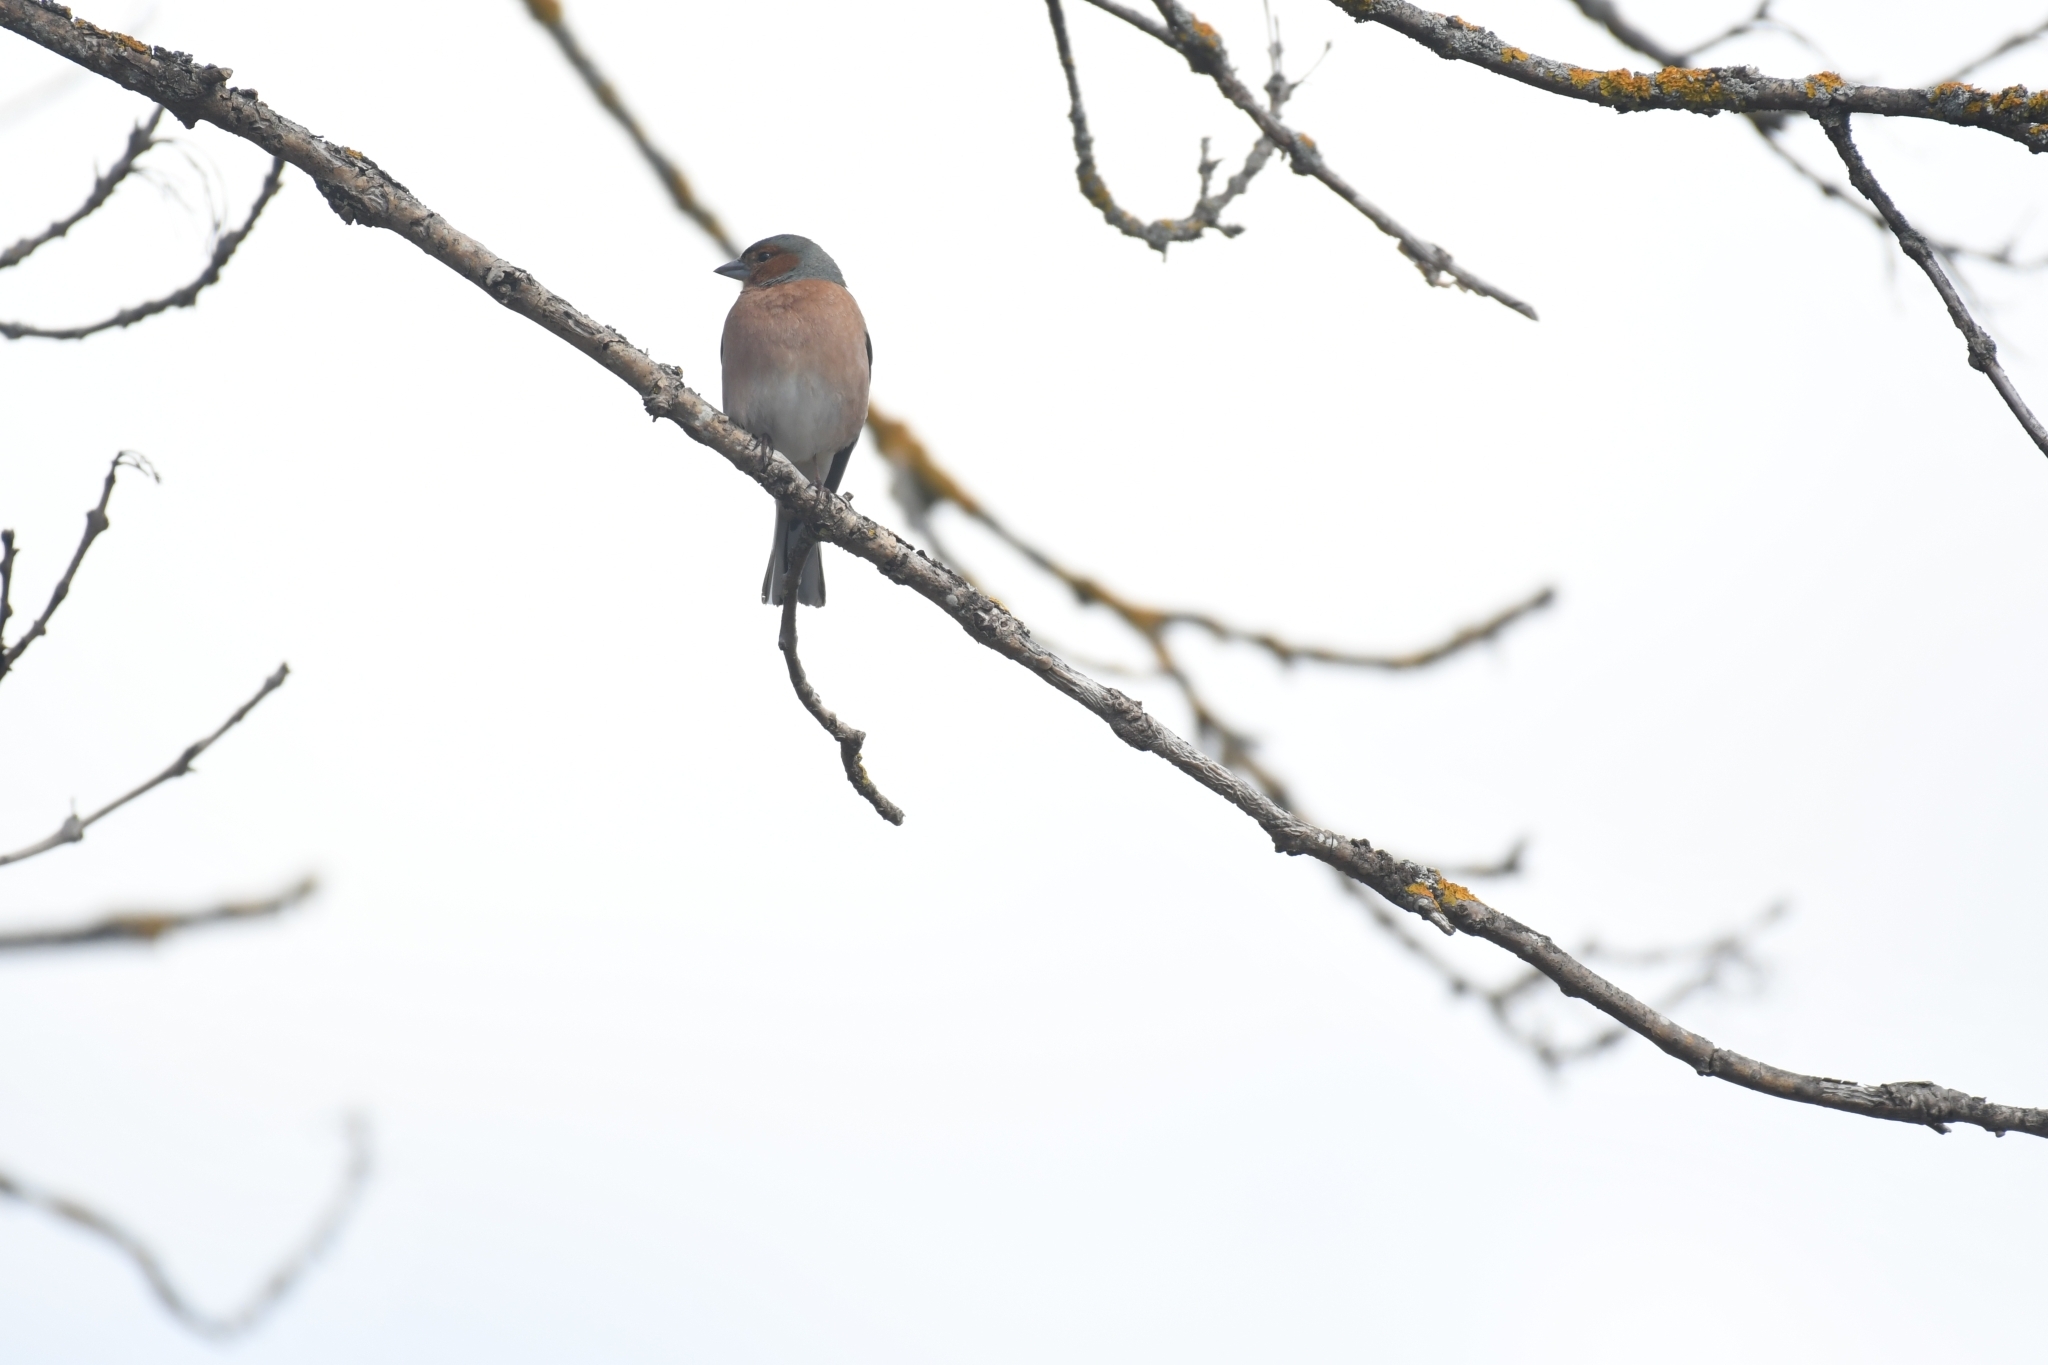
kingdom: Animalia
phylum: Chordata
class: Aves
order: Passeriformes
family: Fringillidae
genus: Fringilla
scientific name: Fringilla coelebs
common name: Common chaffinch
